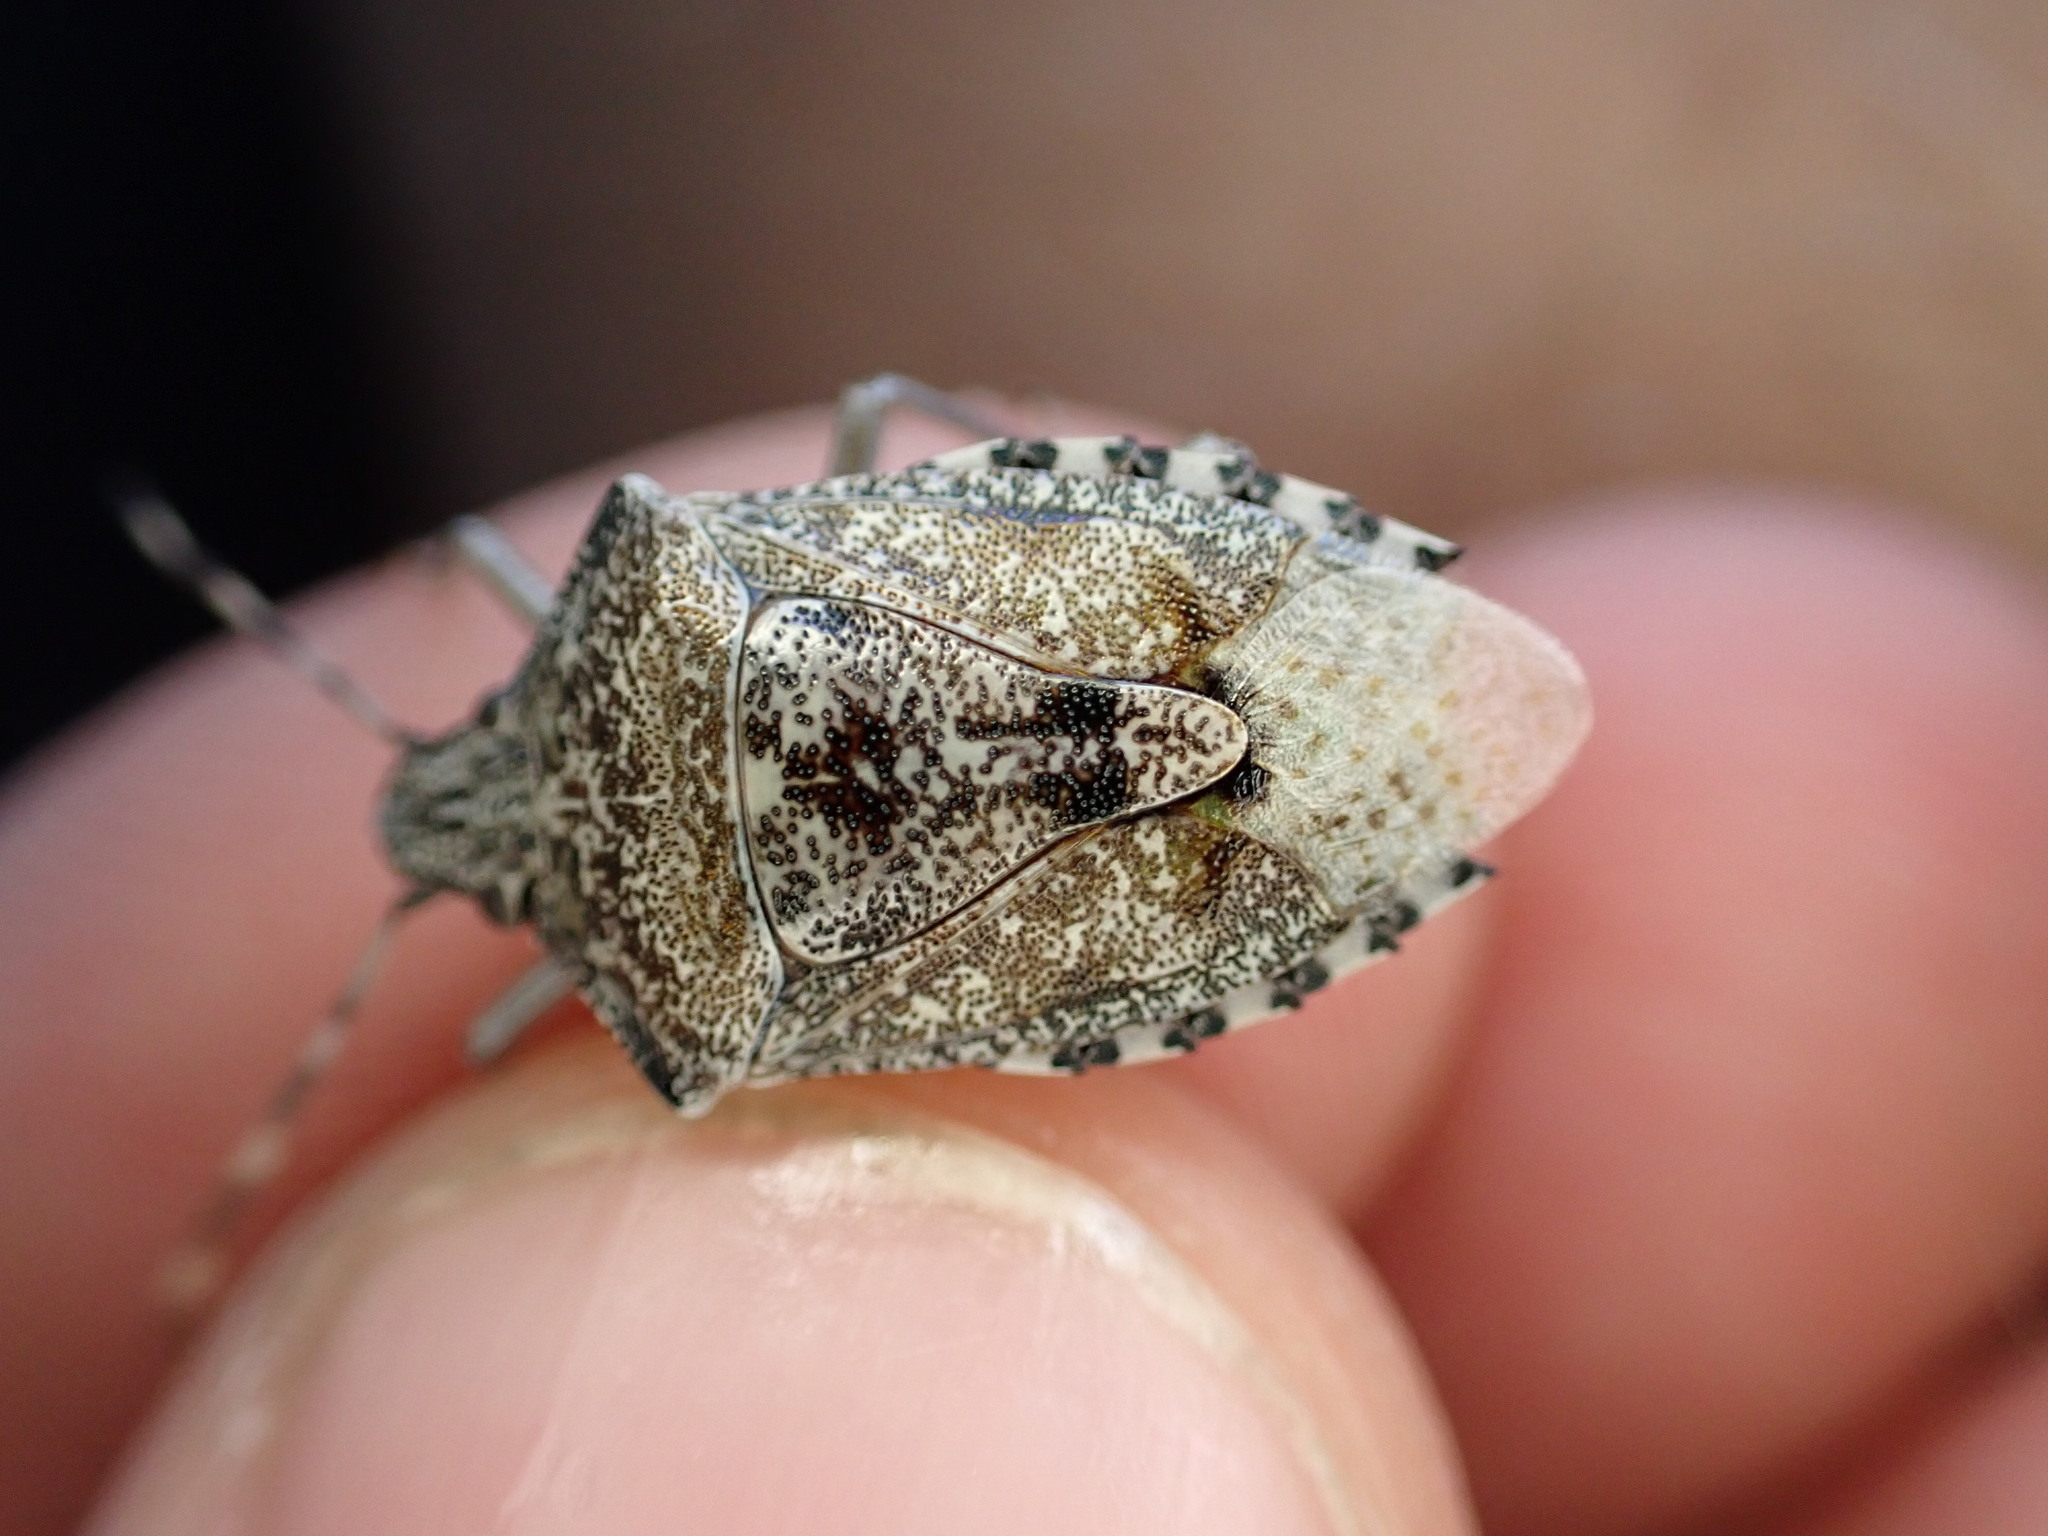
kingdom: Animalia
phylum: Arthropoda
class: Insecta
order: Hemiptera
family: Pentatomidae
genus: Rhaphigaster
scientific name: Rhaphigaster nebulosa
